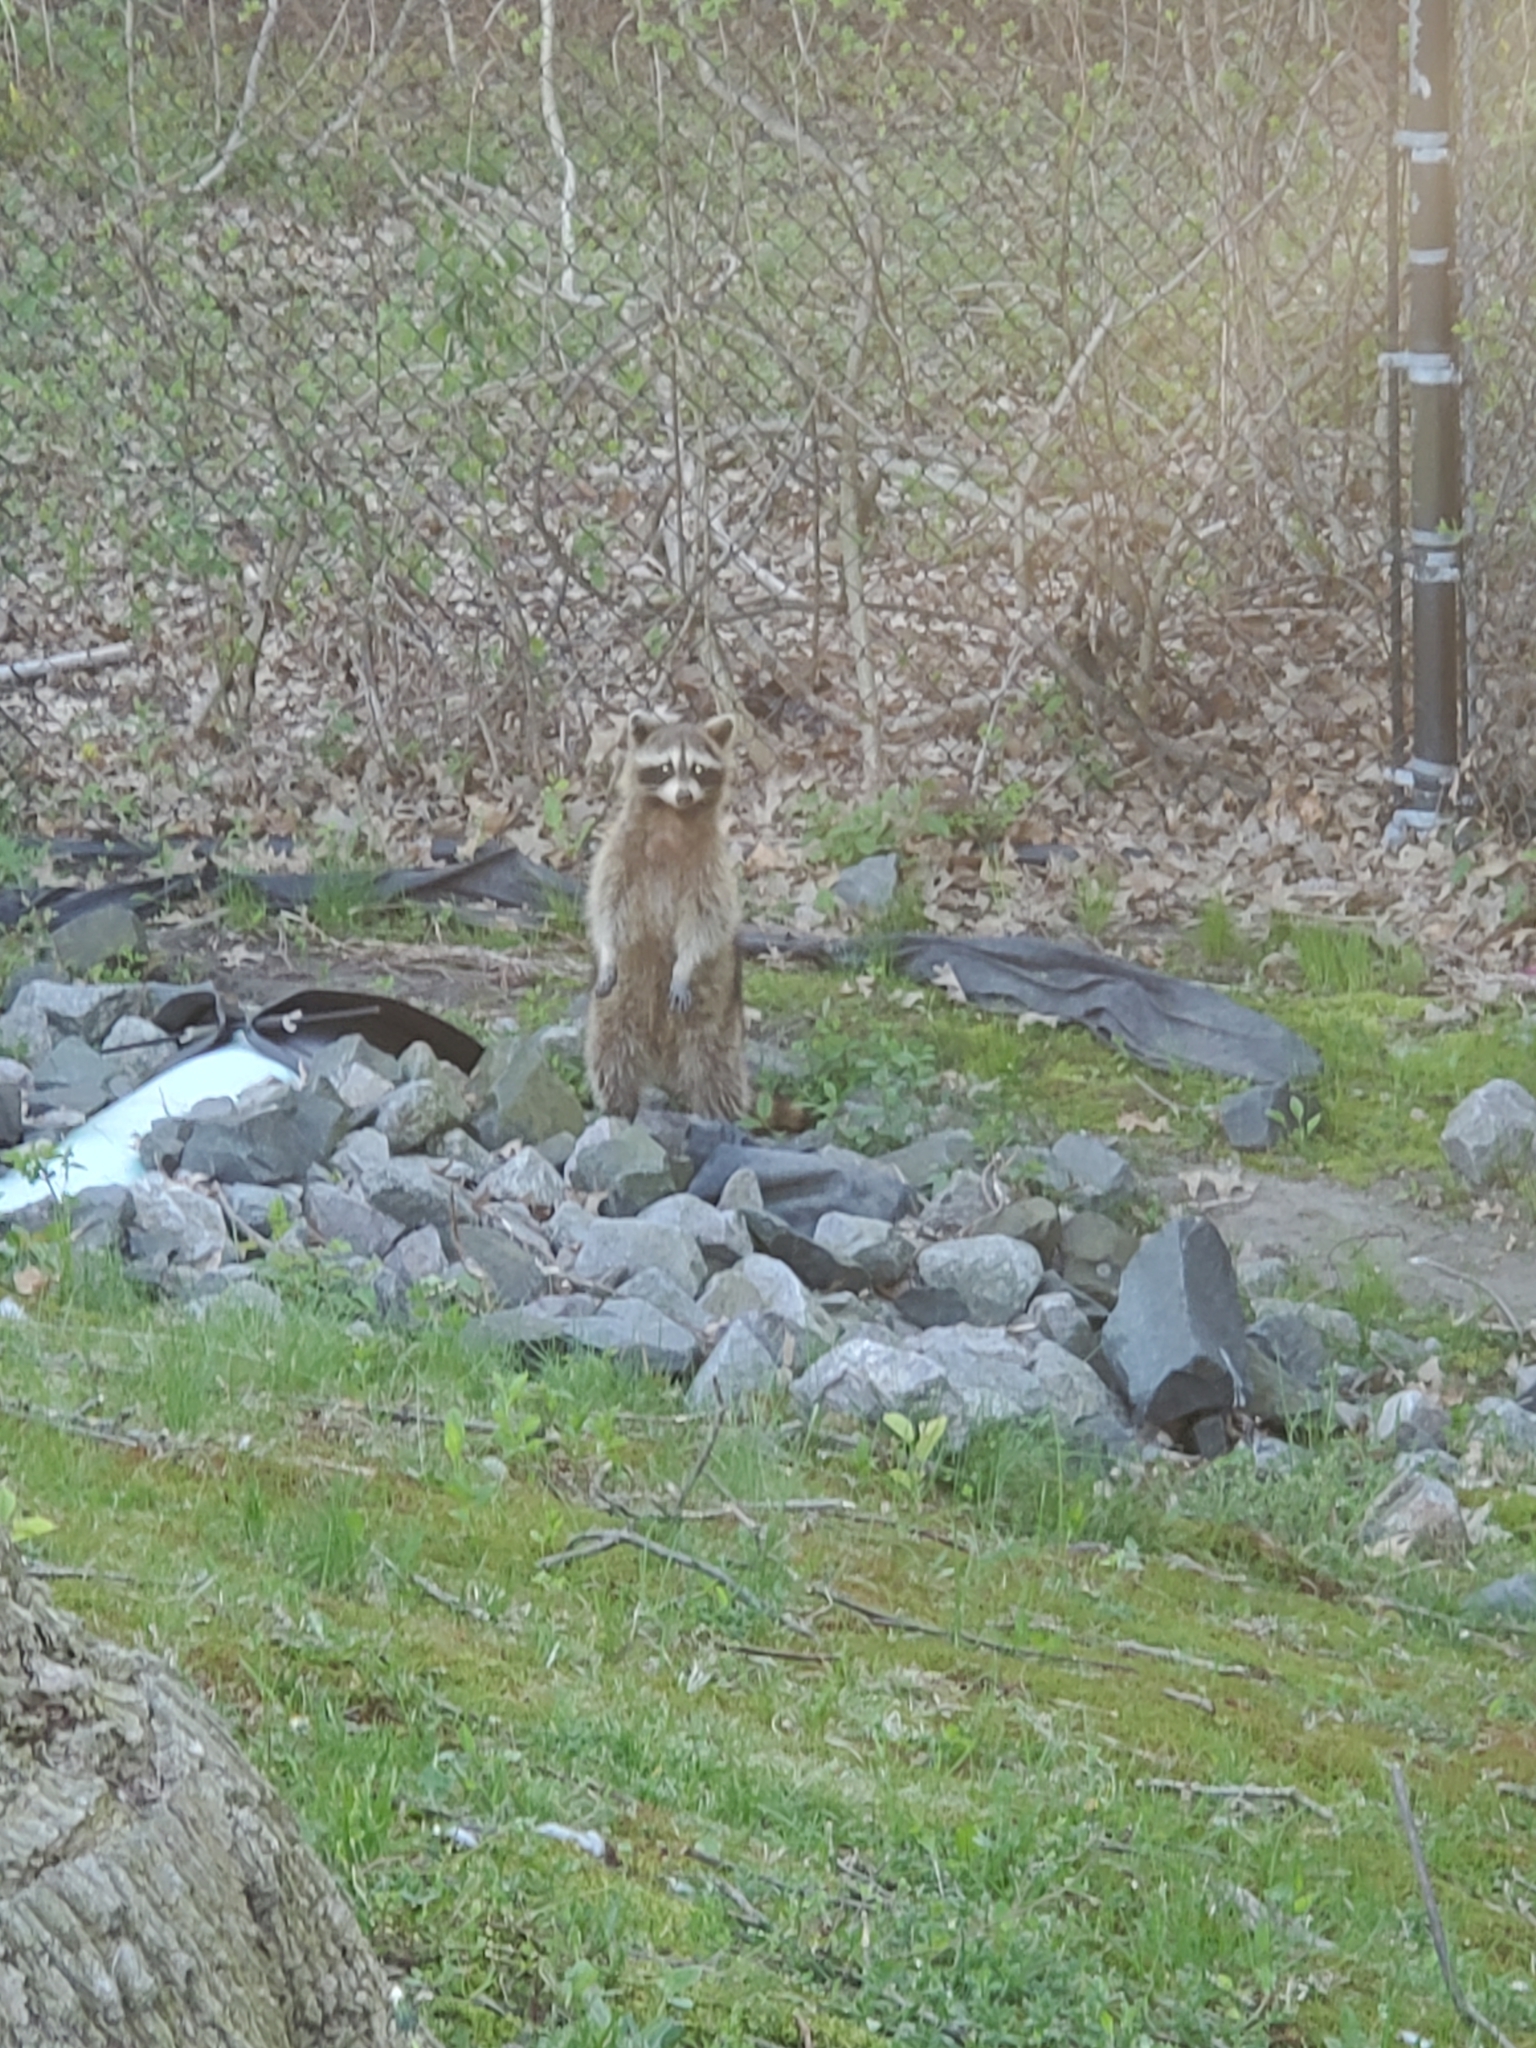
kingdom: Animalia
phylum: Chordata
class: Mammalia
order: Carnivora
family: Procyonidae
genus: Procyon
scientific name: Procyon lotor
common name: Raccoon
